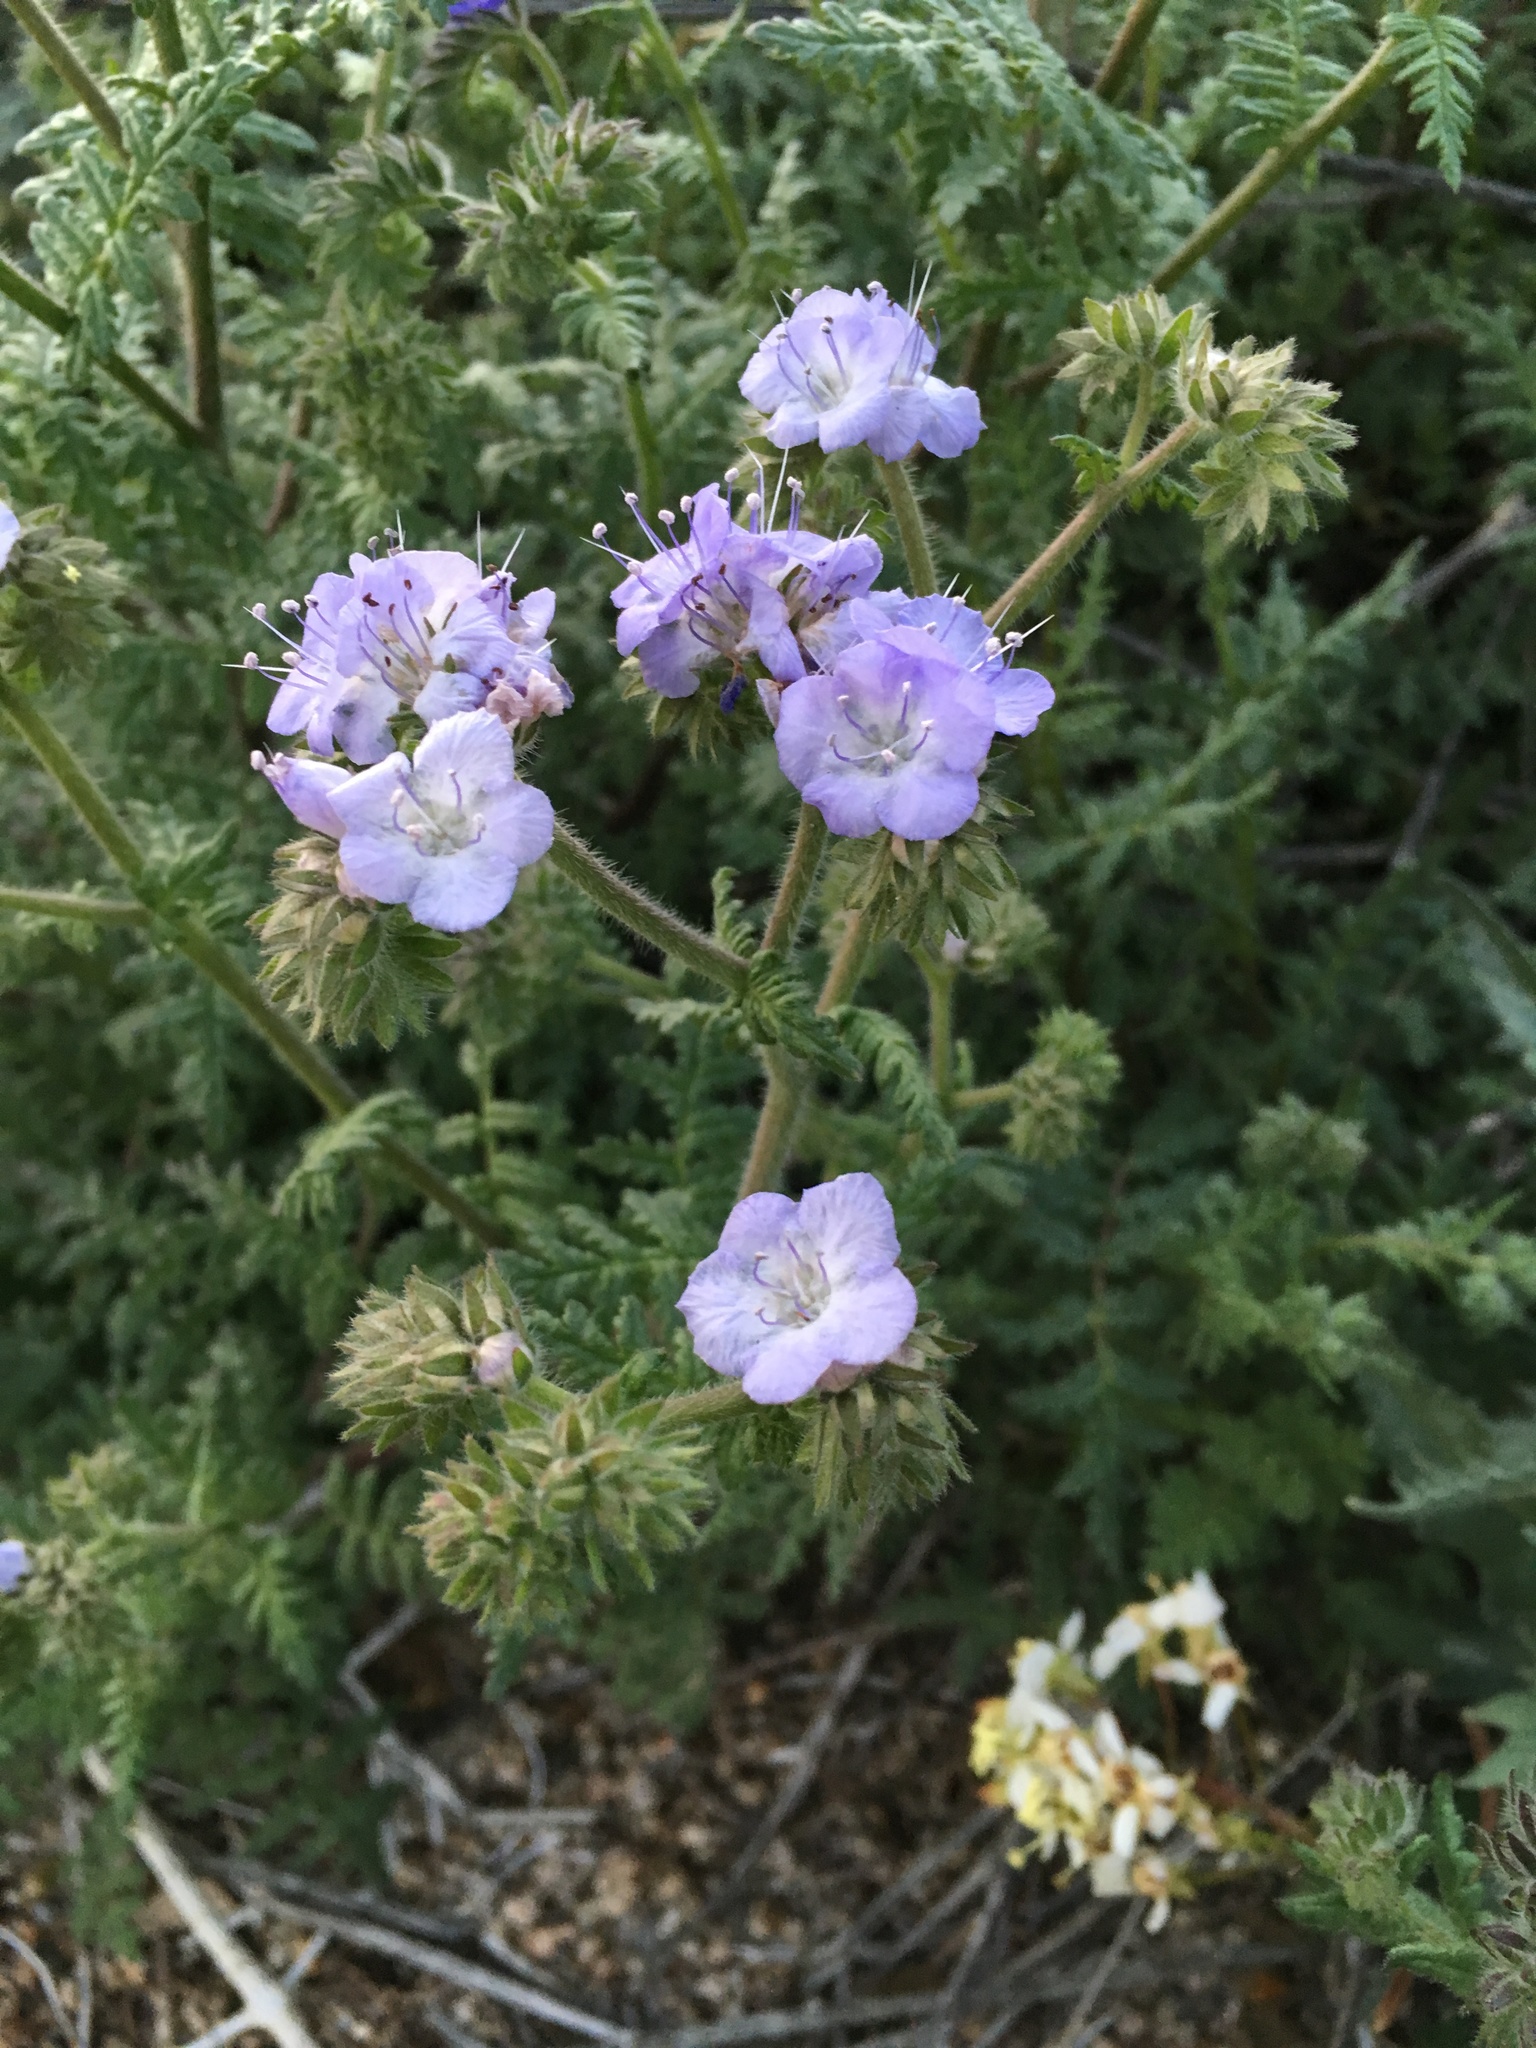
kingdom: Plantae
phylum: Tracheophyta
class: Magnoliopsida
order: Boraginales
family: Hydrophyllaceae
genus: Phacelia
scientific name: Phacelia distans
